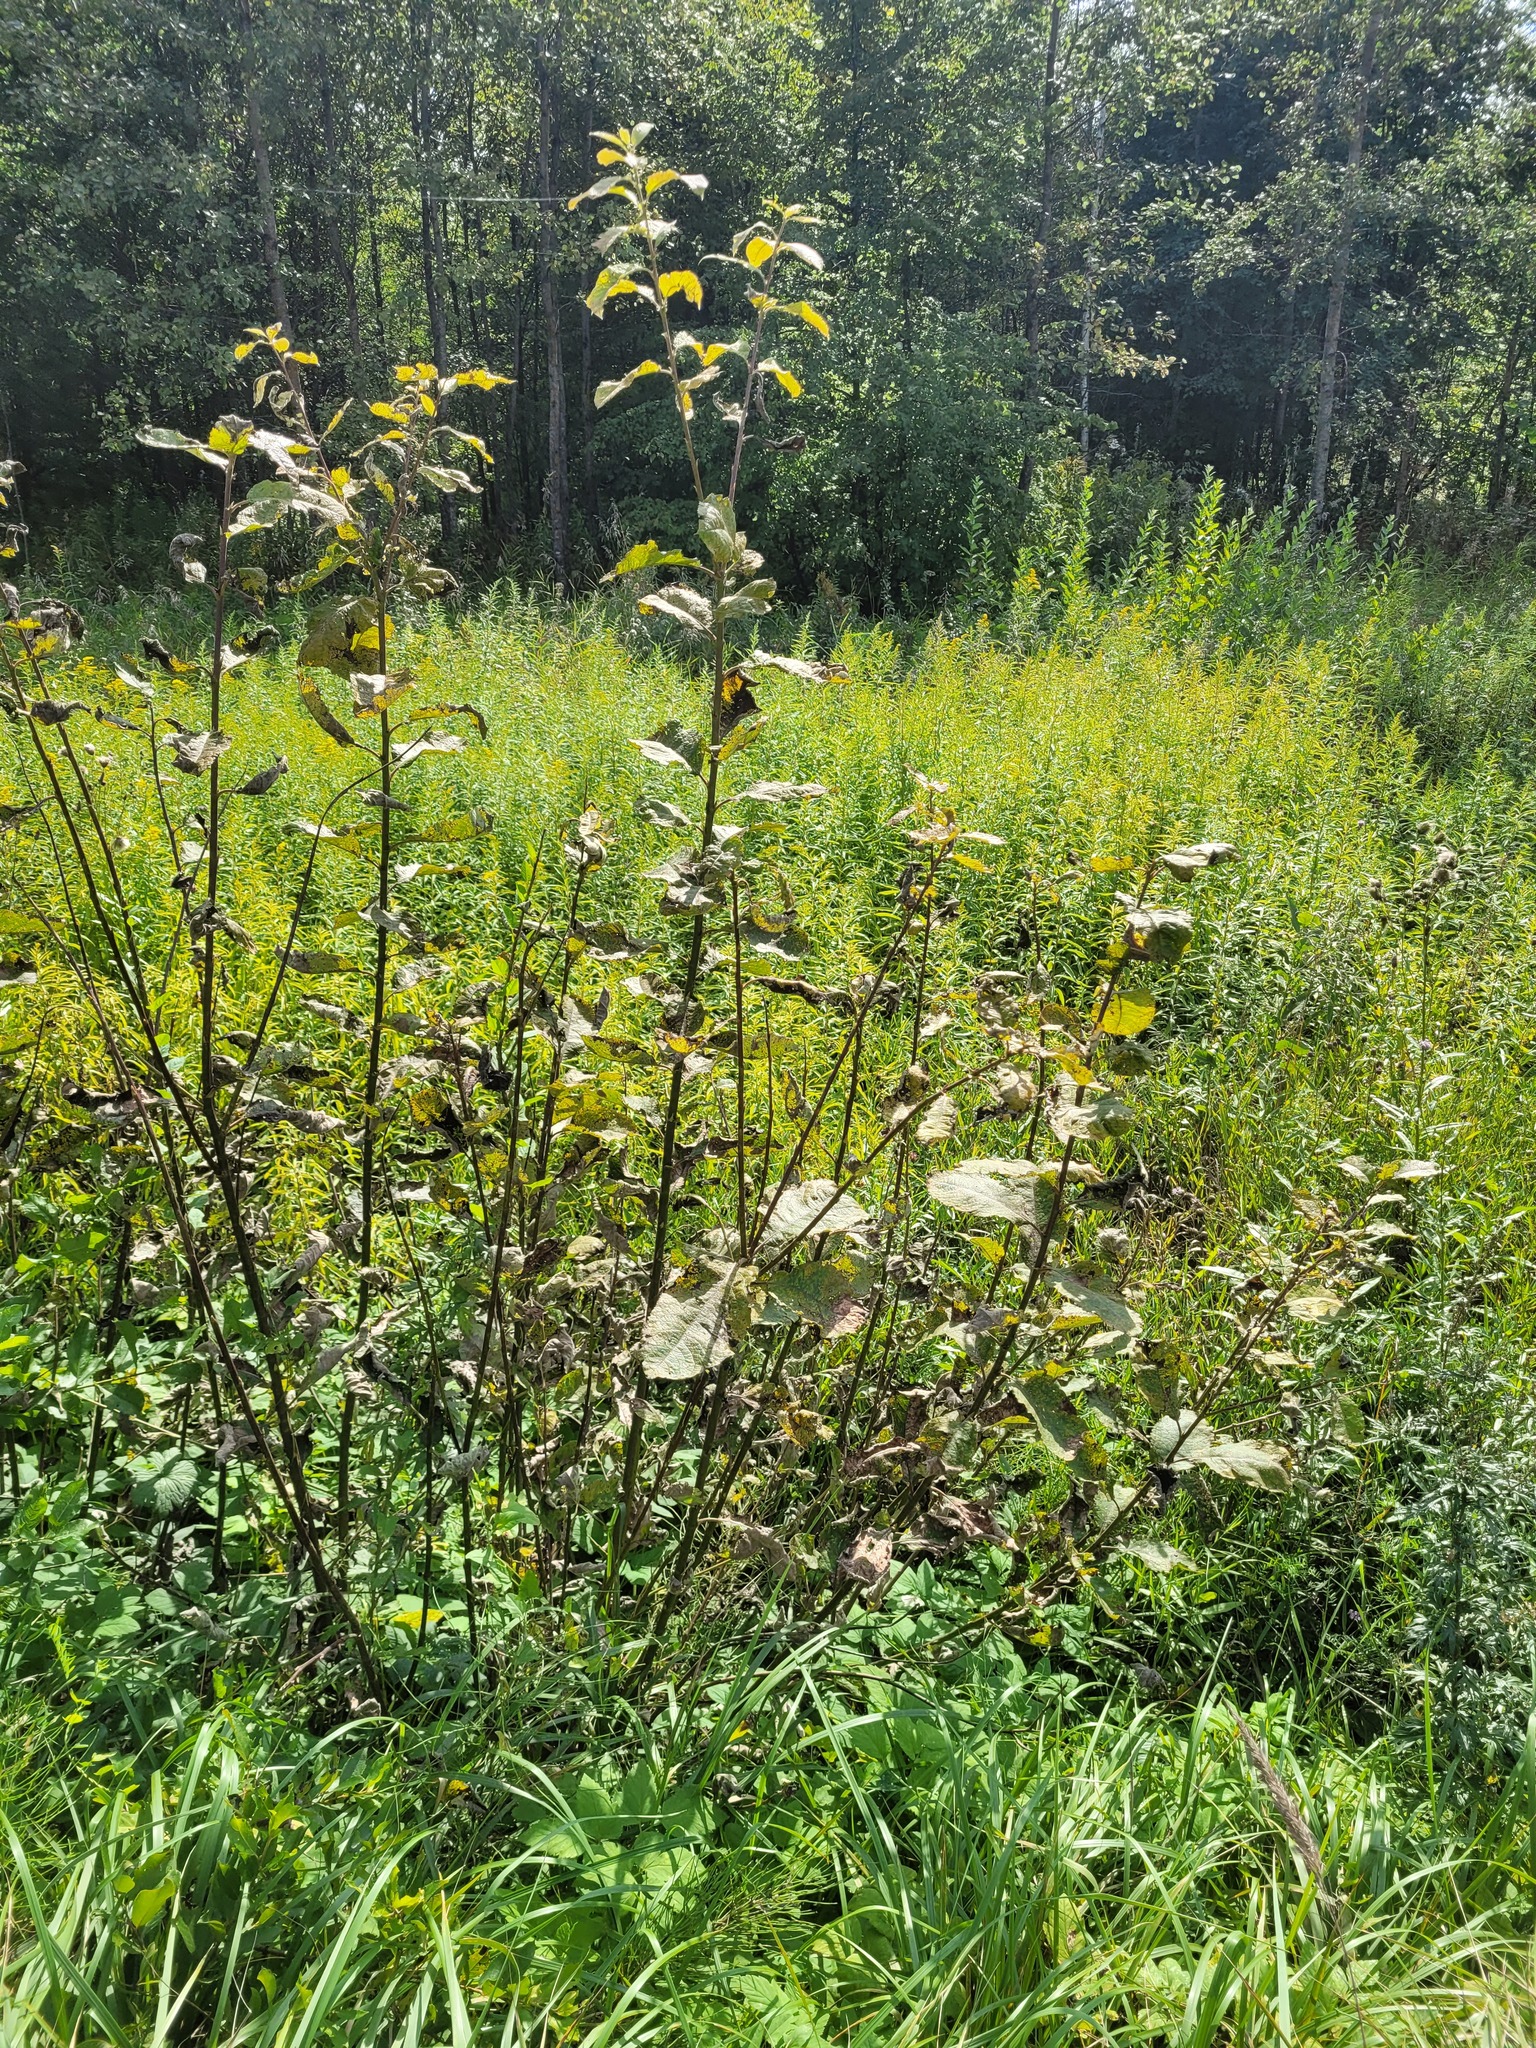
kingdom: Plantae
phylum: Tracheophyta
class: Magnoliopsida
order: Malpighiales
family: Salicaceae
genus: Salix
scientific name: Salix caprea
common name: Goat willow
